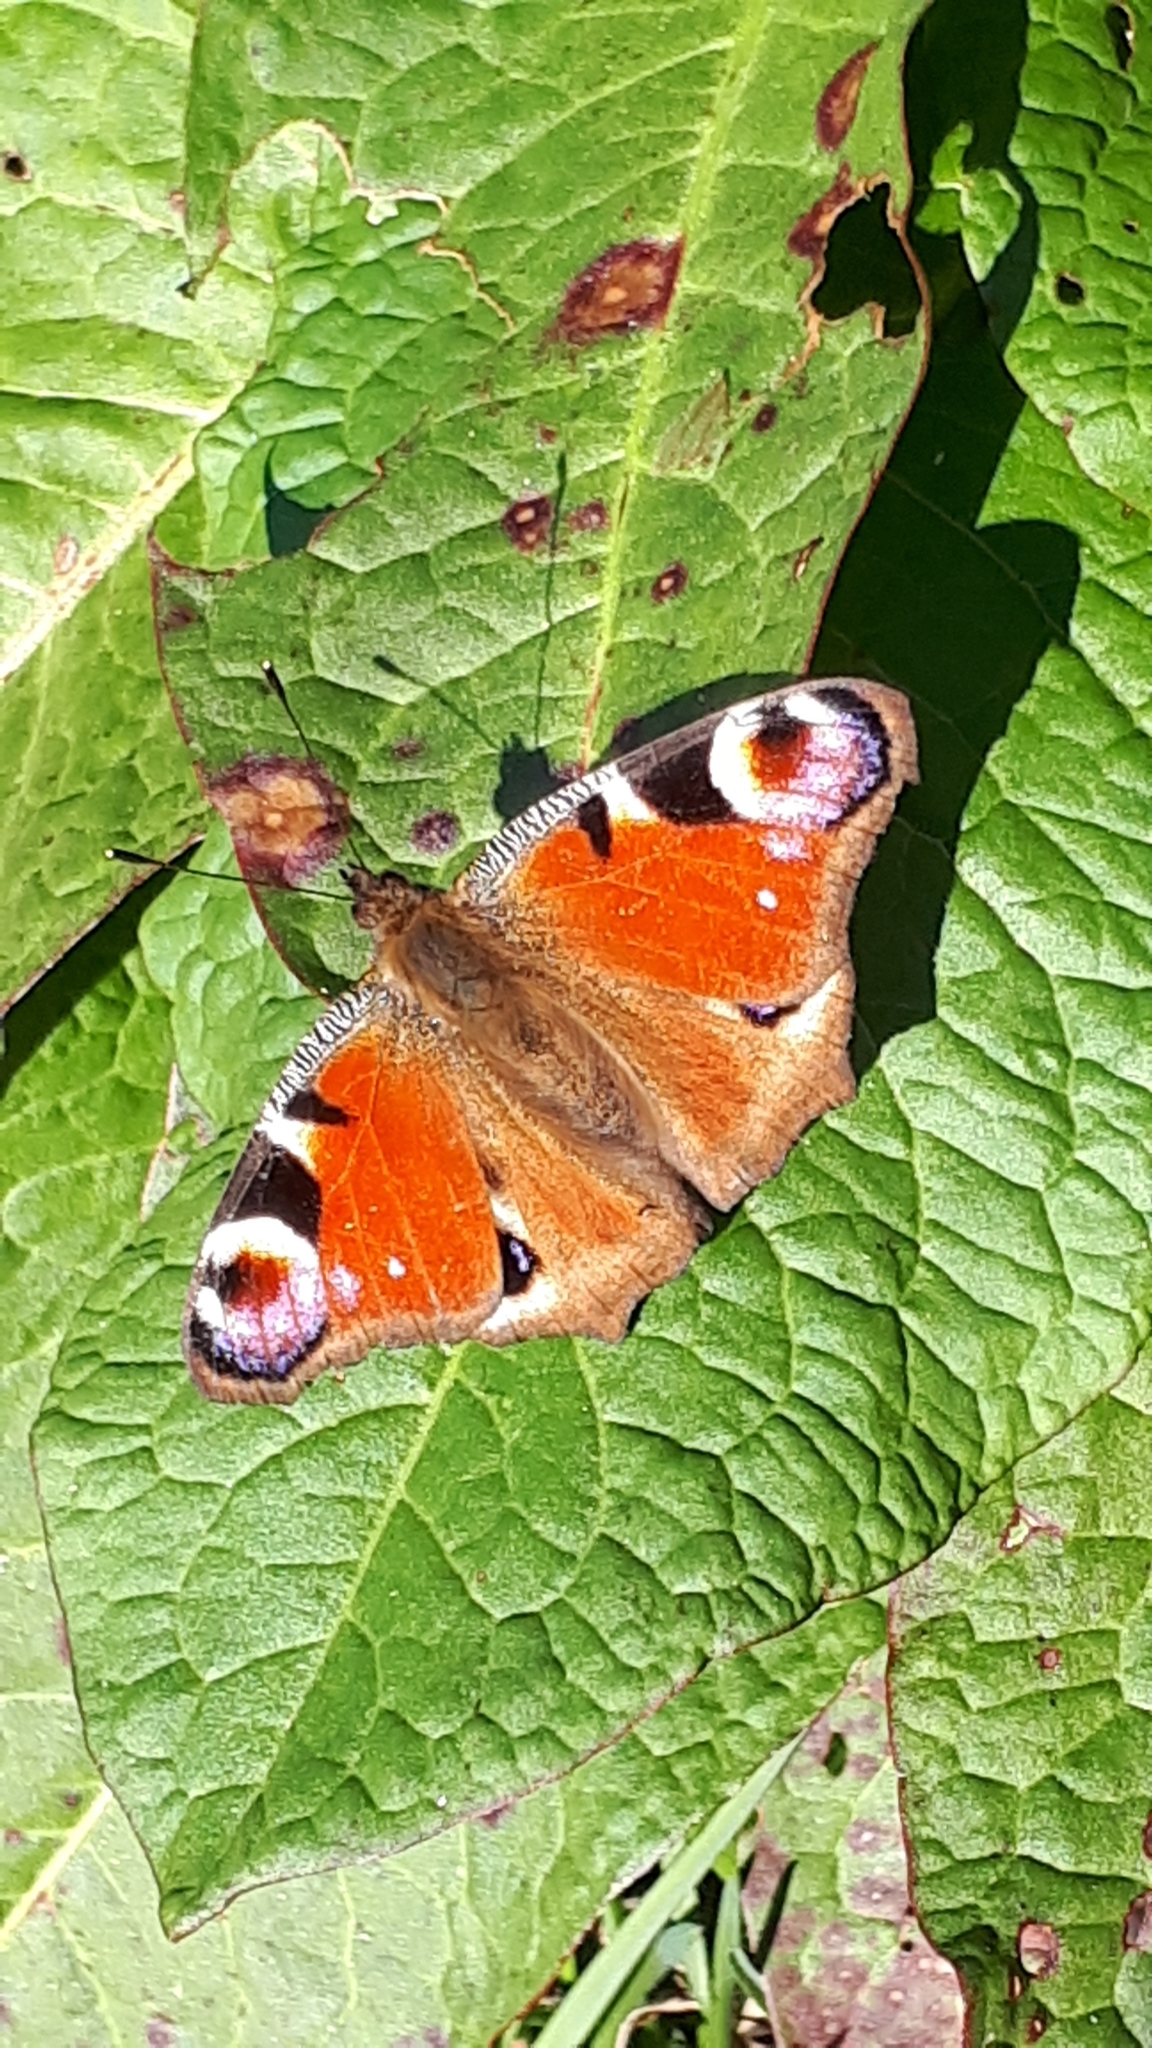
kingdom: Animalia
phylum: Arthropoda
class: Insecta
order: Lepidoptera
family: Nymphalidae
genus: Aglais
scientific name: Aglais io
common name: Peacock
